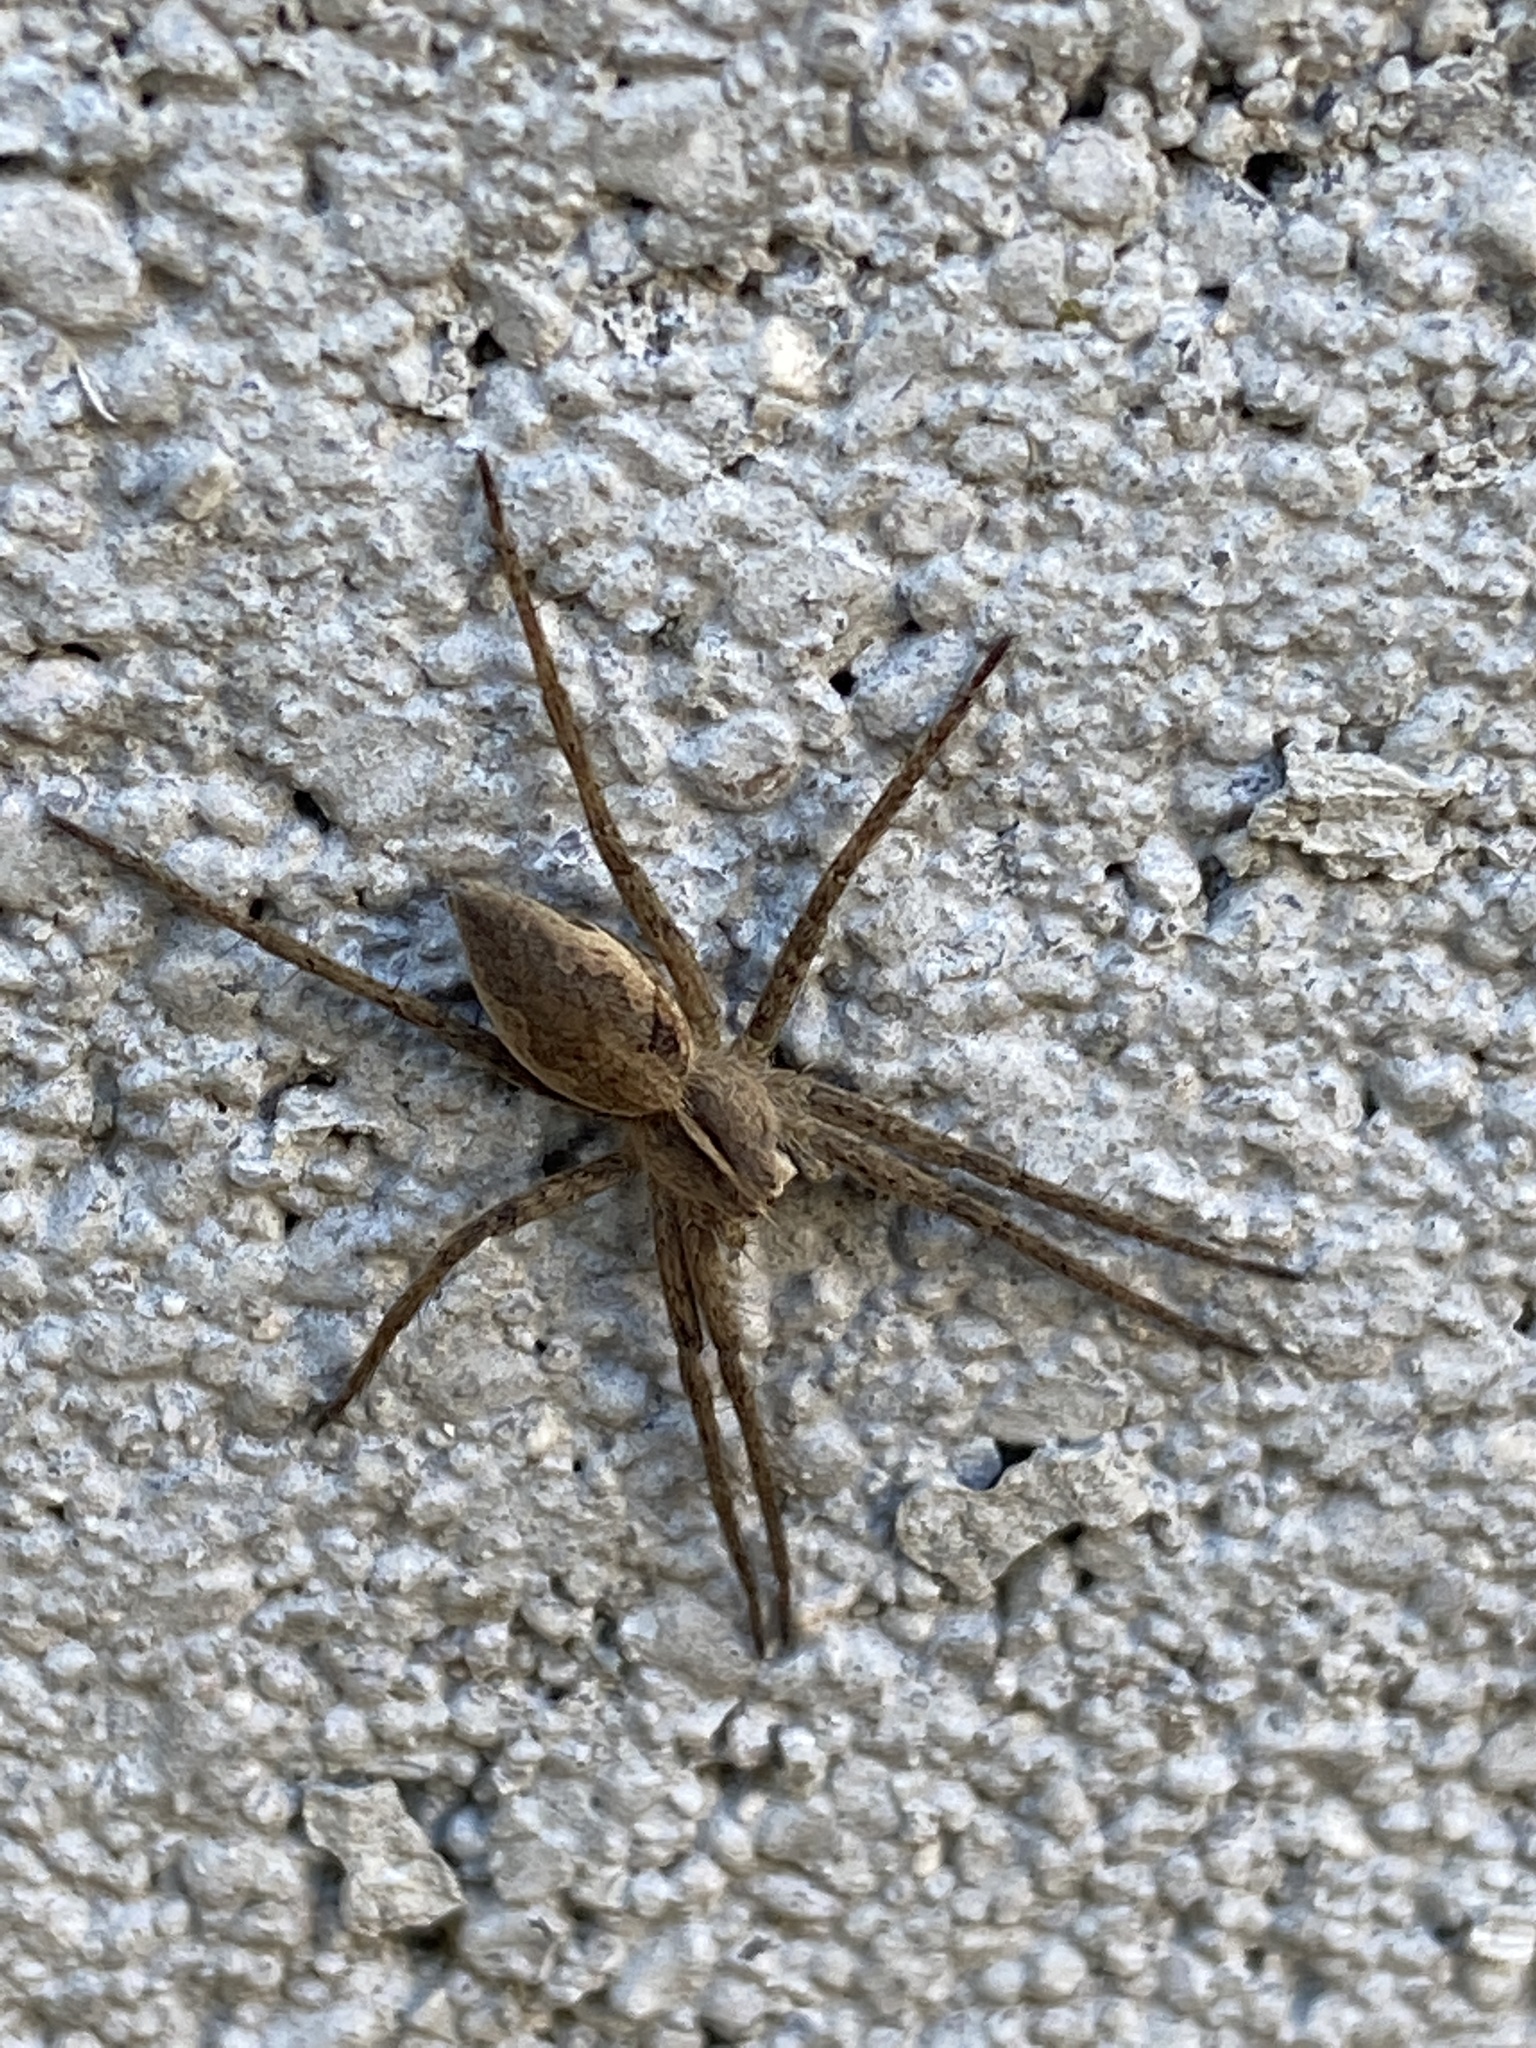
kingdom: Animalia
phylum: Arthropoda
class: Arachnida
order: Araneae
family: Pisauridae
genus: Pisaura
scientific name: Pisaura mirabilis
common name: Tent spider
